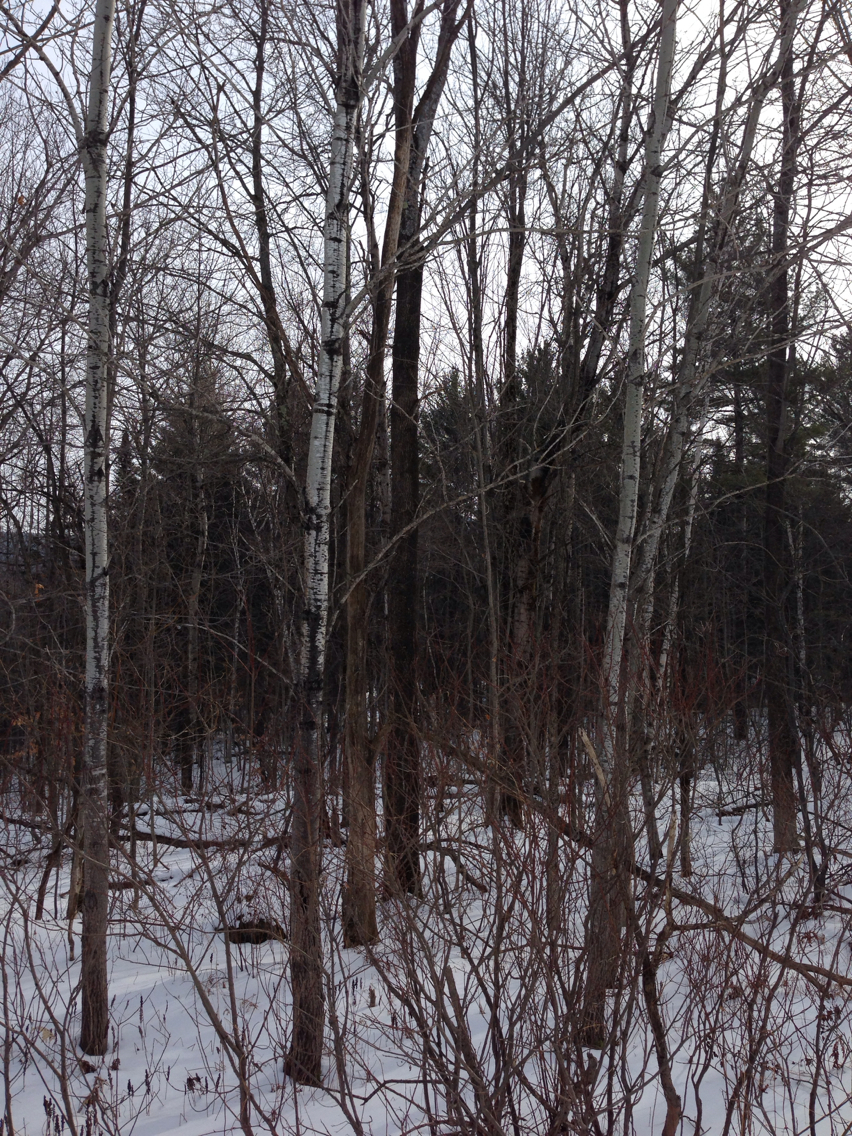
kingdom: Plantae
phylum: Tracheophyta
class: Magnoliopsida
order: Malpighiales
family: Salicaceae
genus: Populus
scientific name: Populus tremuloides
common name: Quaking aspen
